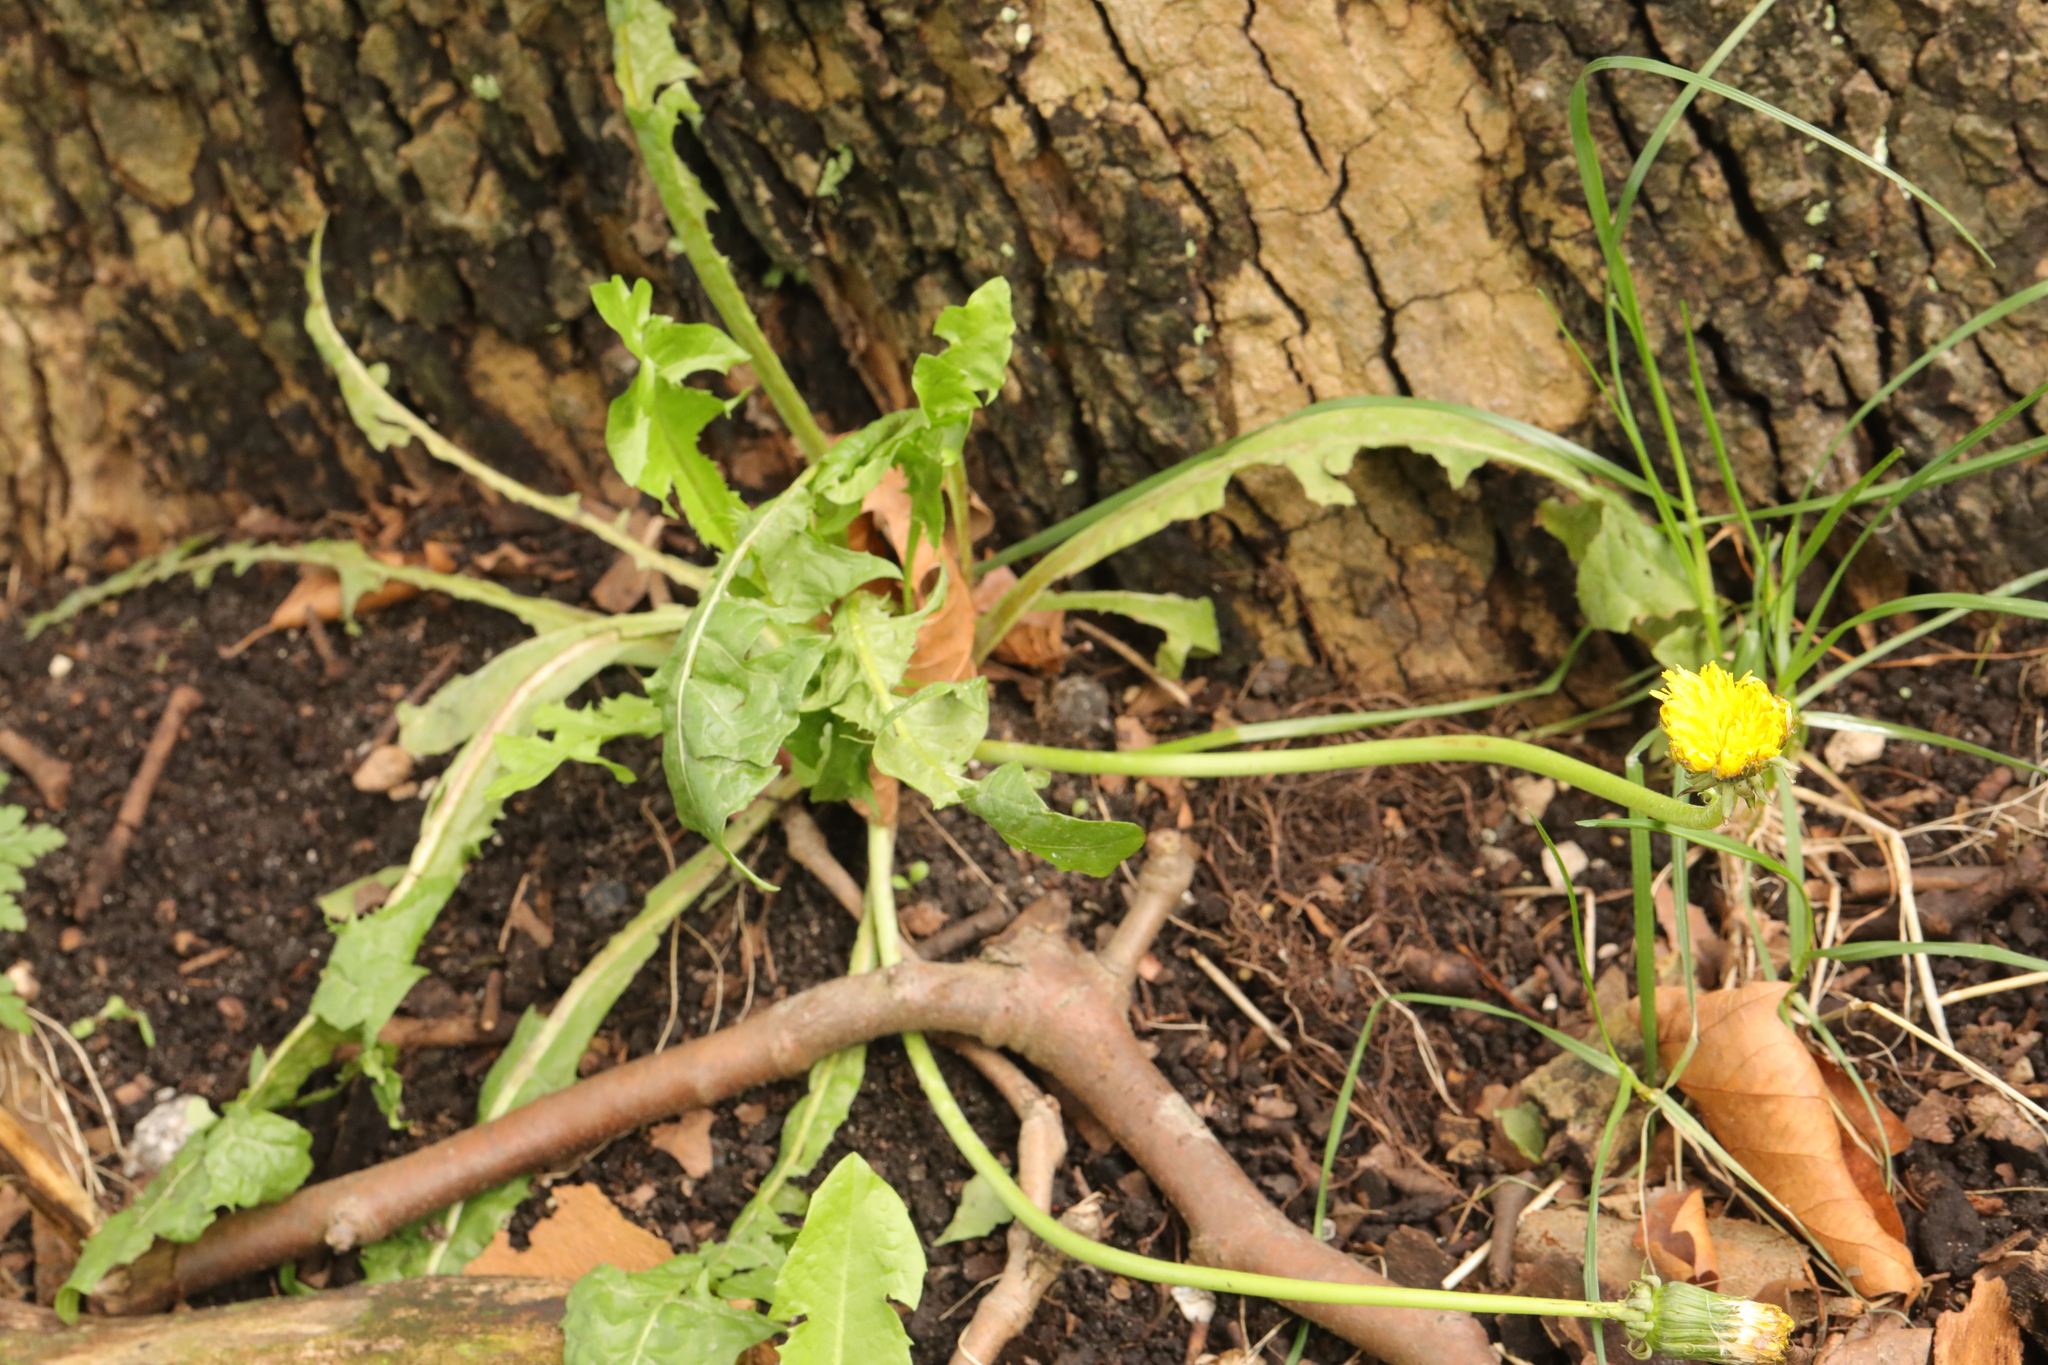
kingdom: Plantae
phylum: Tracheophyta
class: Magnoliopsida
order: Asterales
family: Asteraceae
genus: Taraxacum
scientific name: Taraxacum officinale
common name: Common dandelion
